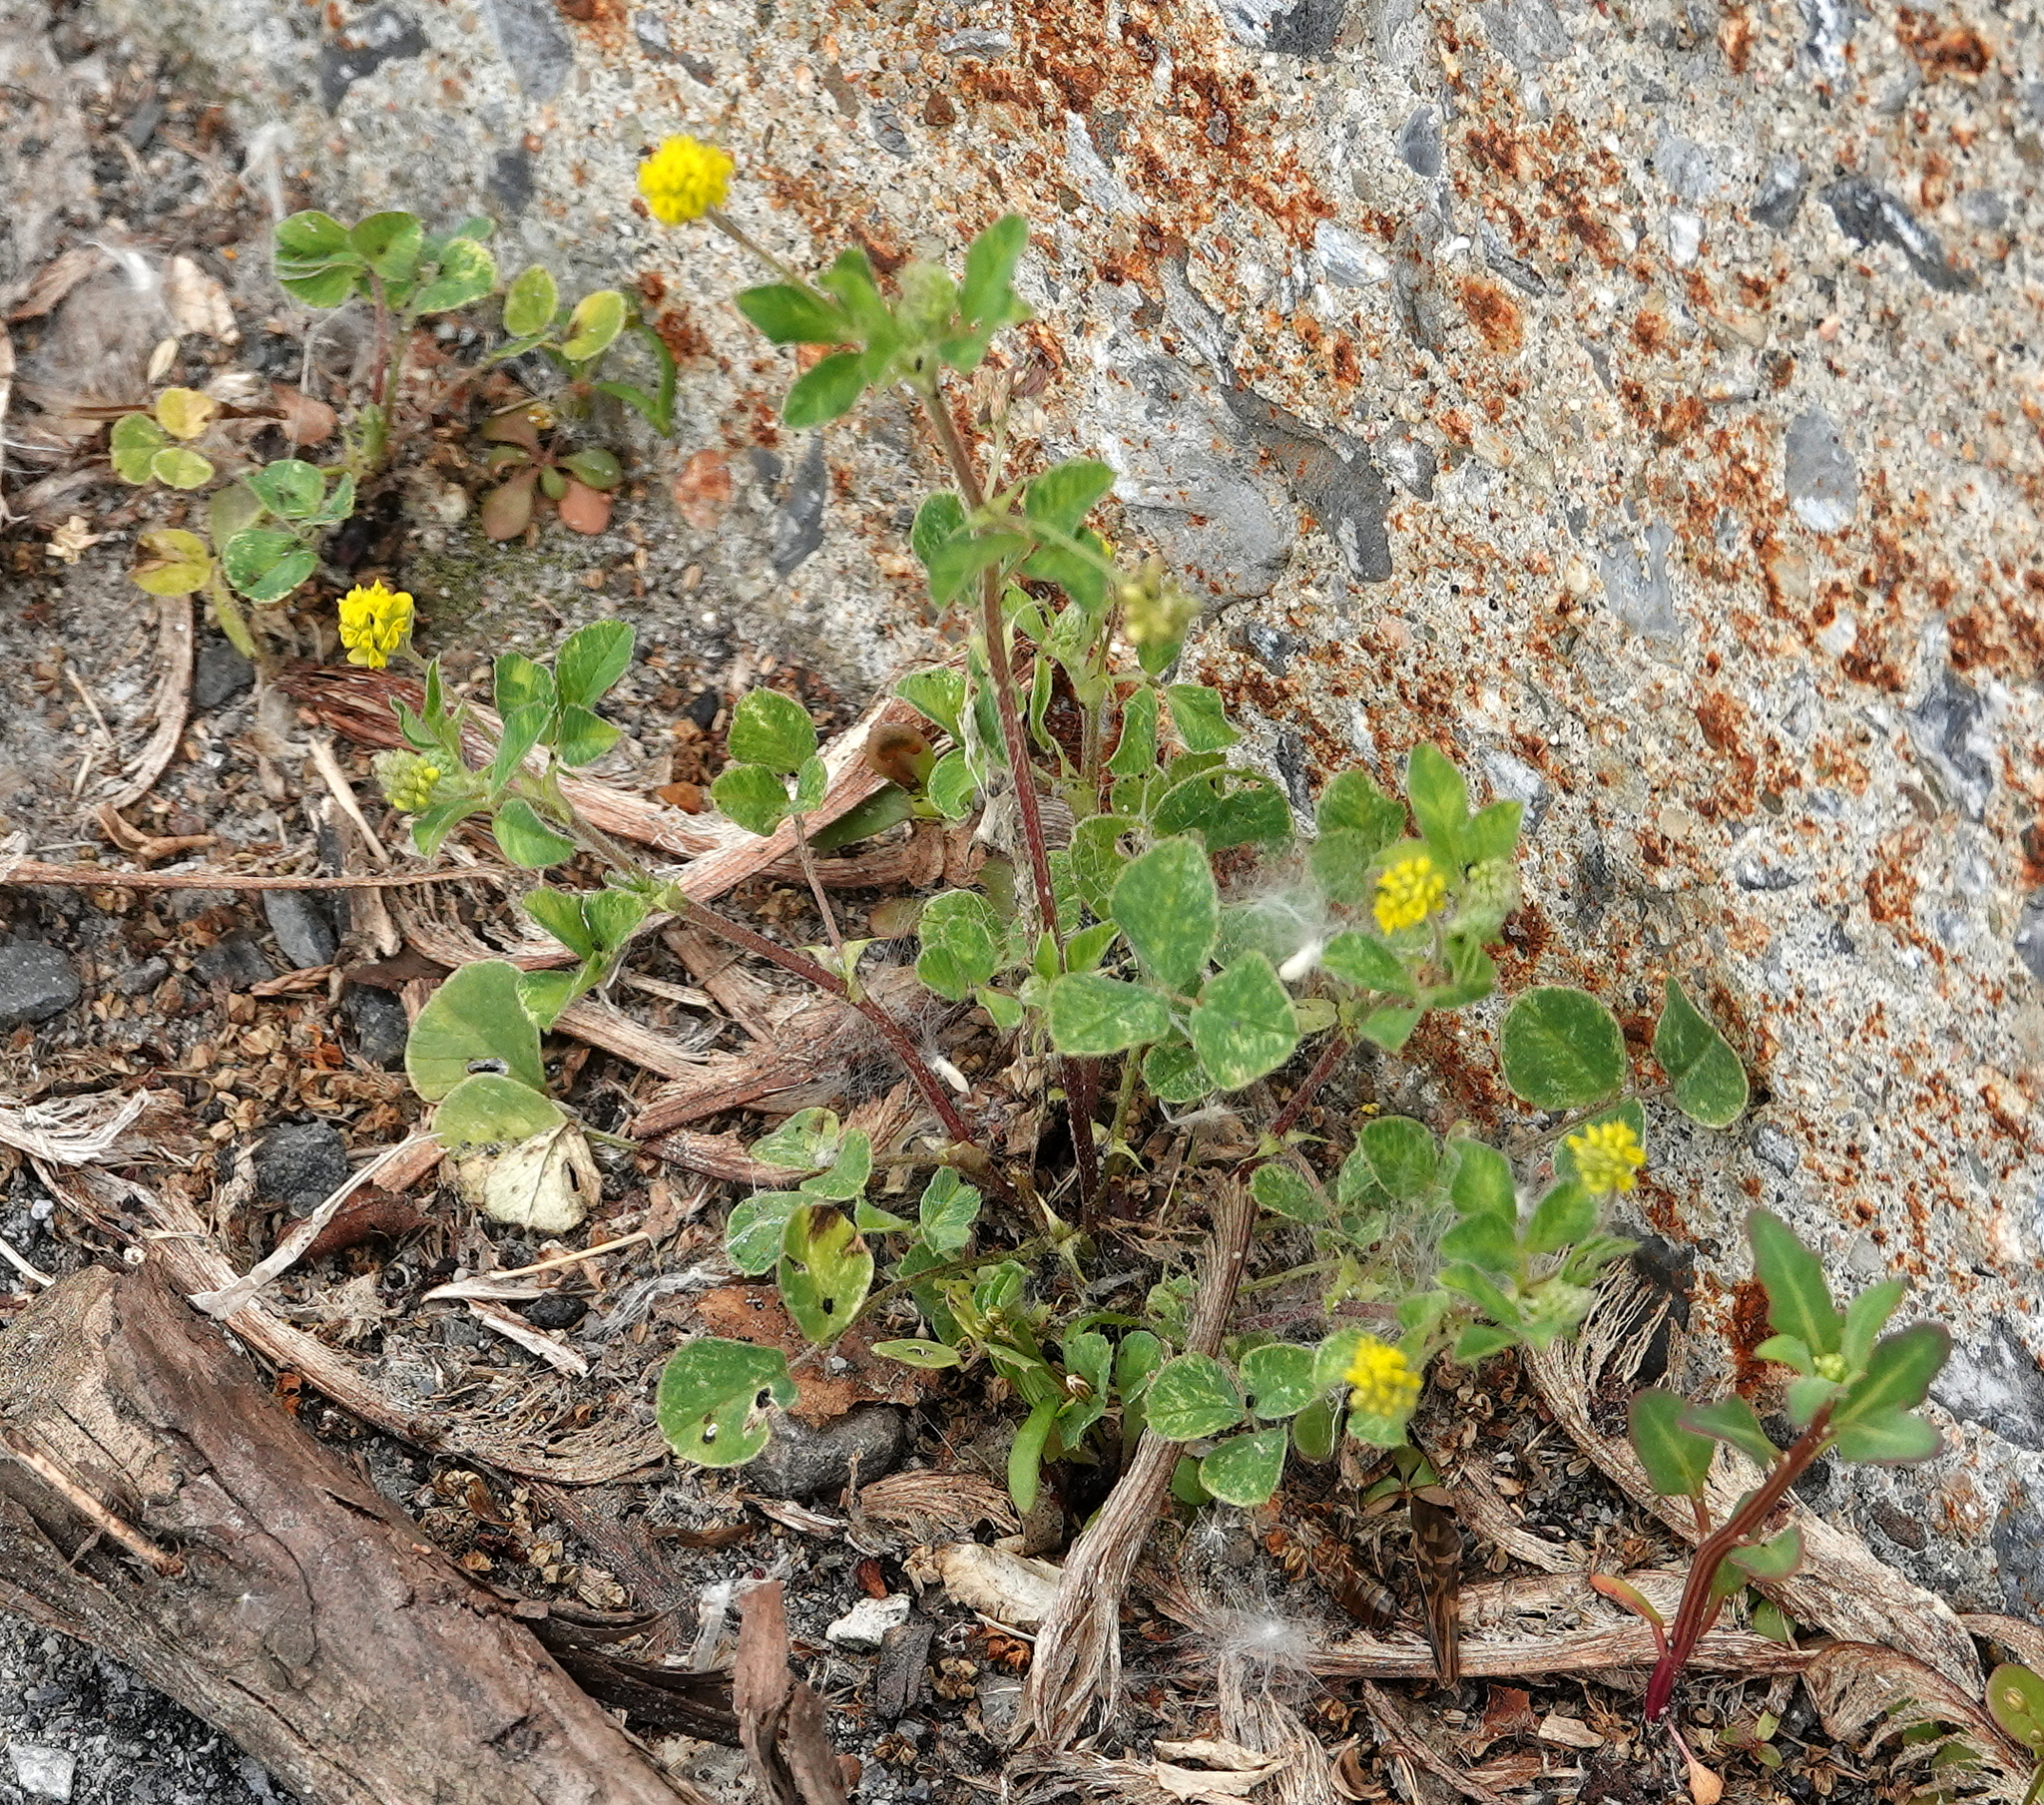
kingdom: Plantae
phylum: Tracheophyta
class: Magnoliopsida
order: Fabales
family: Fabaceae
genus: Medicago
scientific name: Medicago lupulina
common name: Black medick
